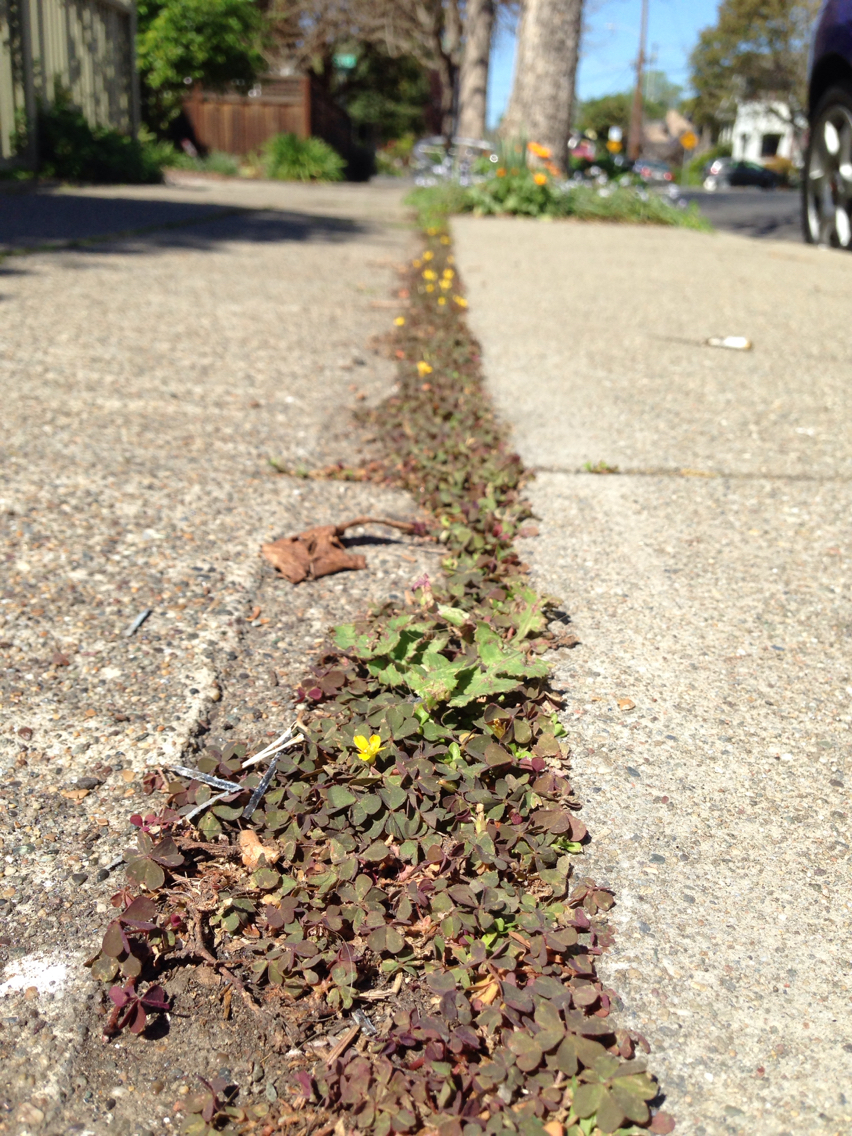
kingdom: Plantae
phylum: Tracheophyta
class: Magnoliopsida
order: Oxalidales
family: Oxalidaceae
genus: Oxalis
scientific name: Oxalis corniculata
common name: Procumbent yellow-sorrel
